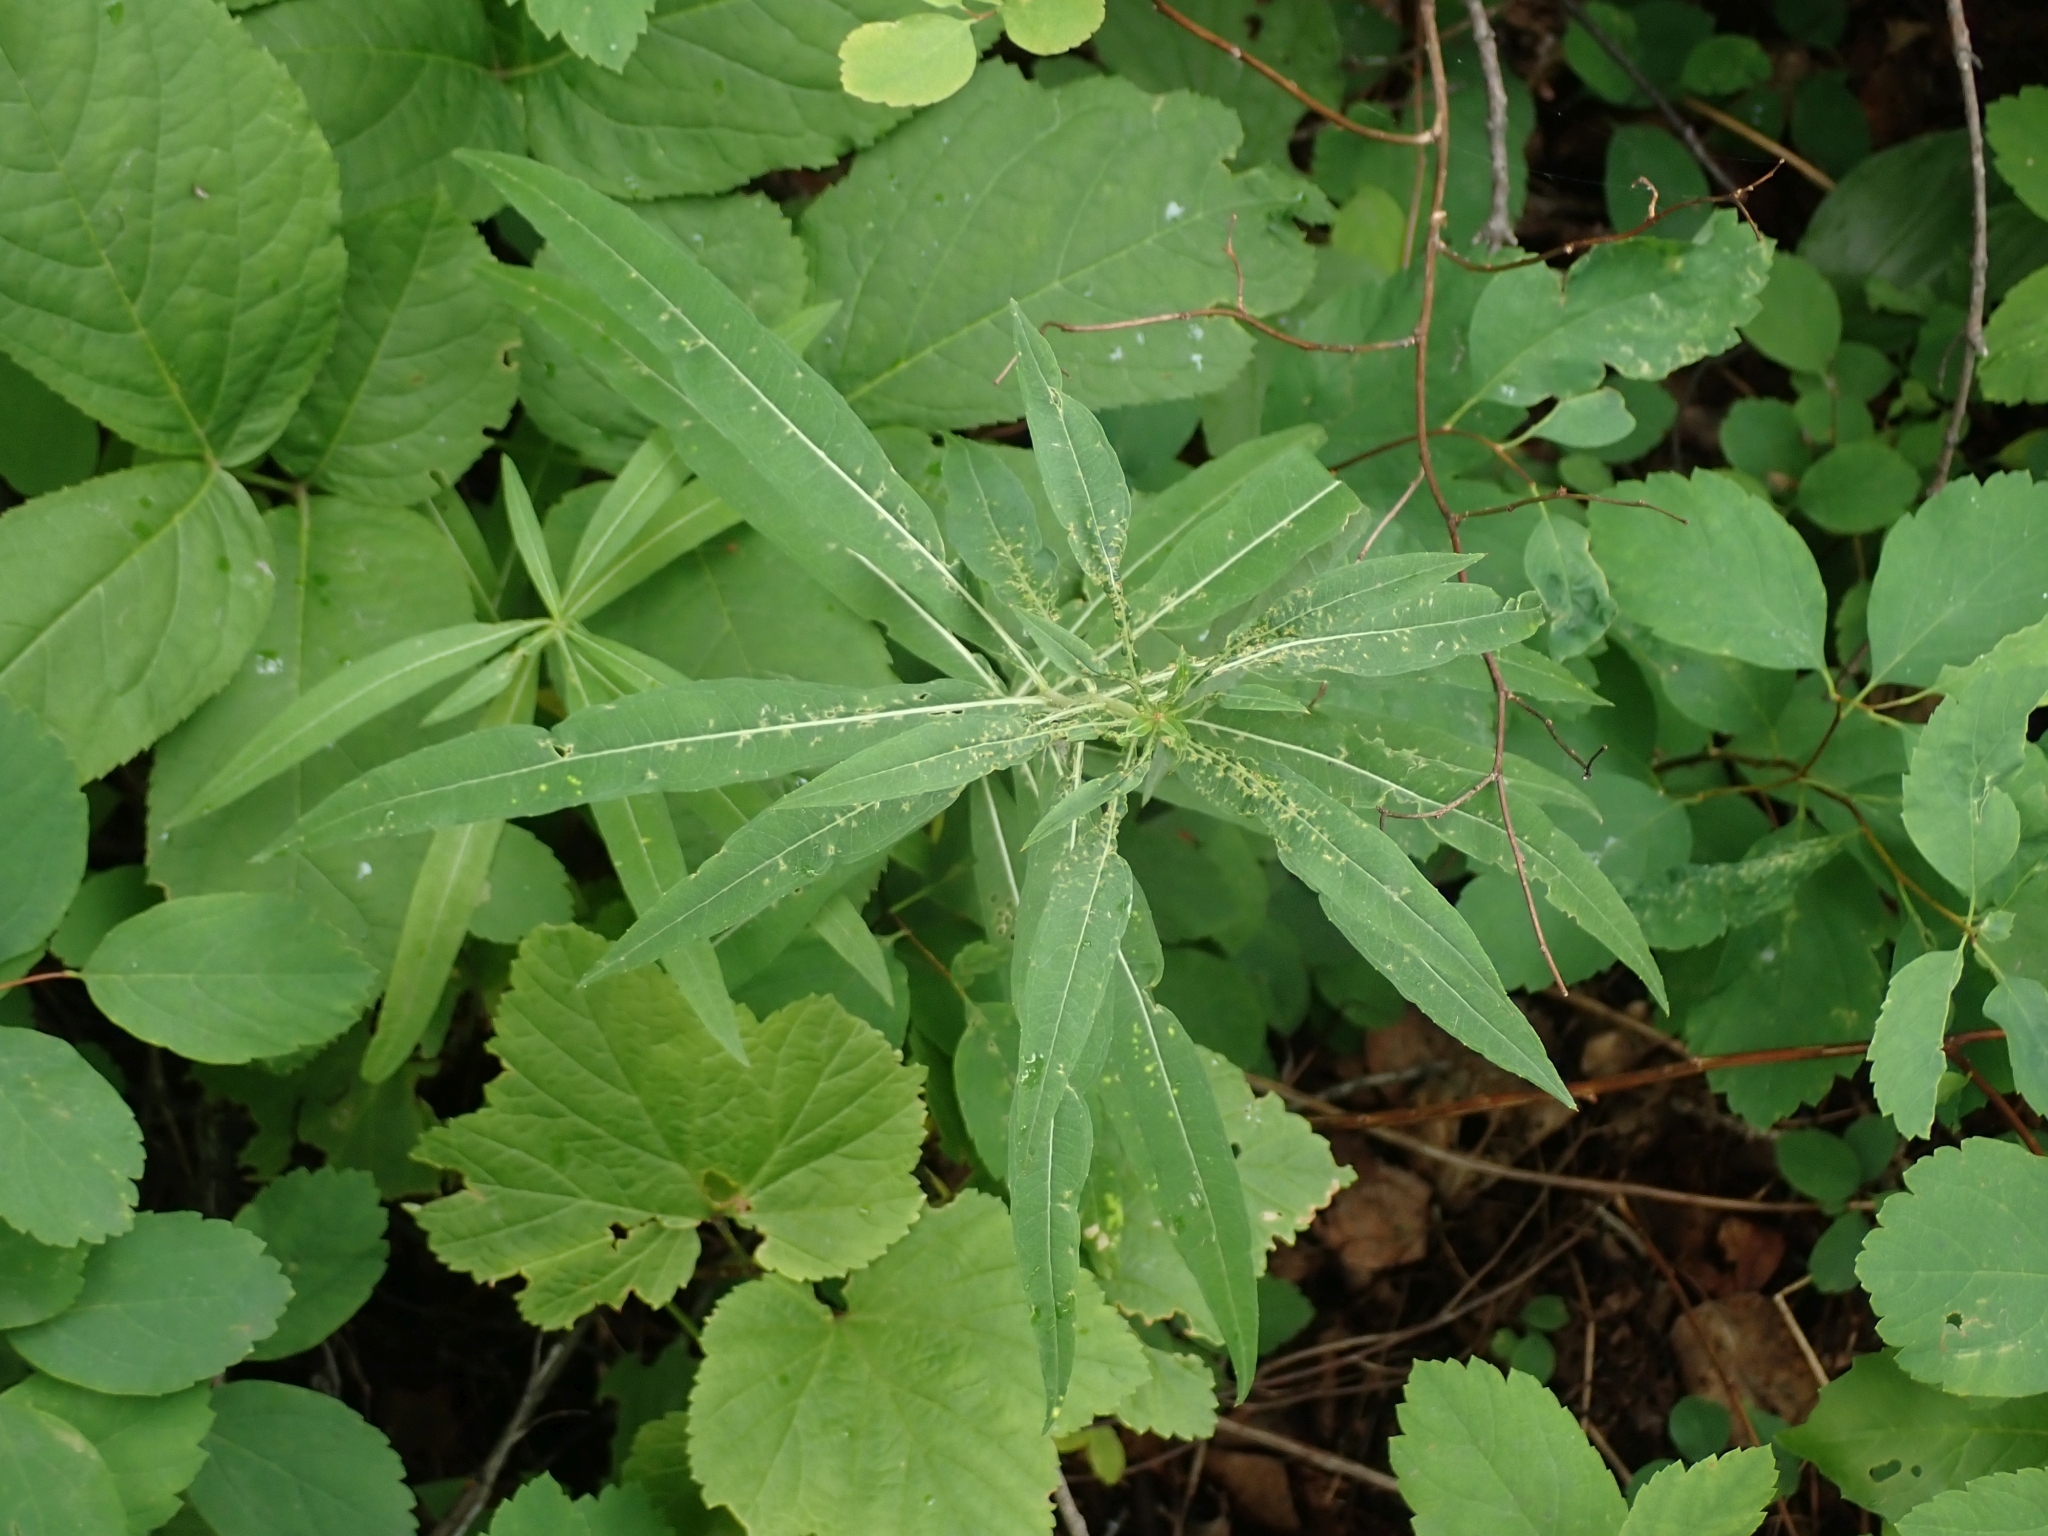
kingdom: Plantae
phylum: Tracheophyta
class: Magnoliopsida
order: Myrtales
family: Onagraceae
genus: Chamaenerion
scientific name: Chamaenerion angustifolium
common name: Fireweed
